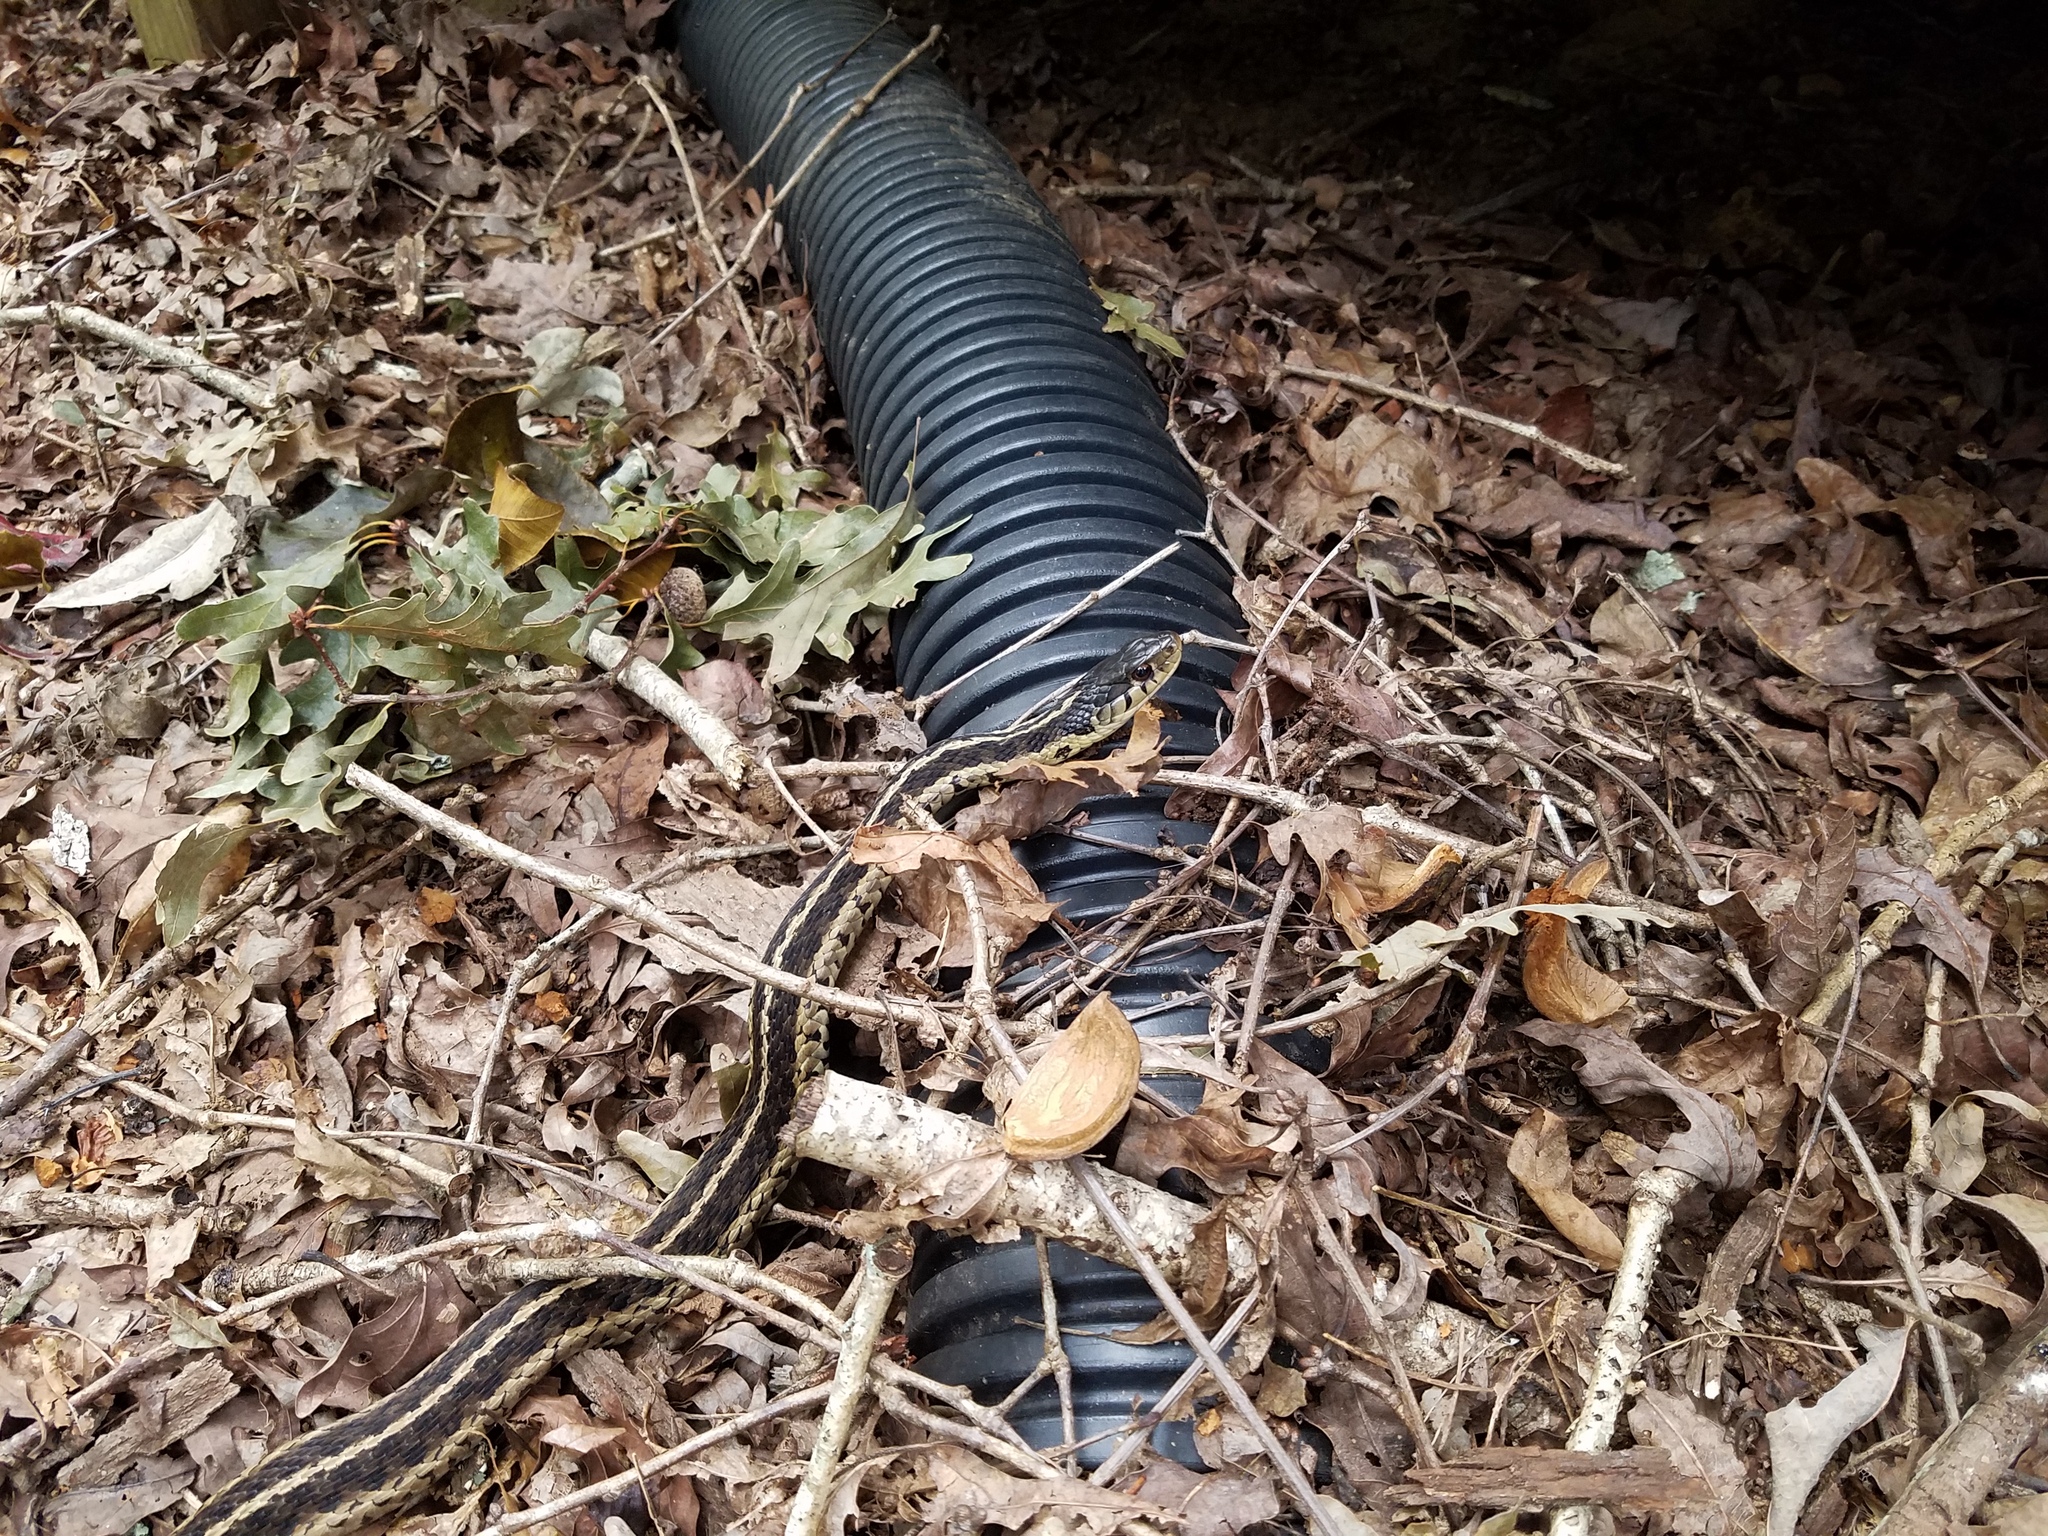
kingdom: Animalia
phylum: Chordata
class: Squamata
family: Colubridae
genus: Thamnophis
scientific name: Thamnophis sirtalis
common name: Common garter snake
